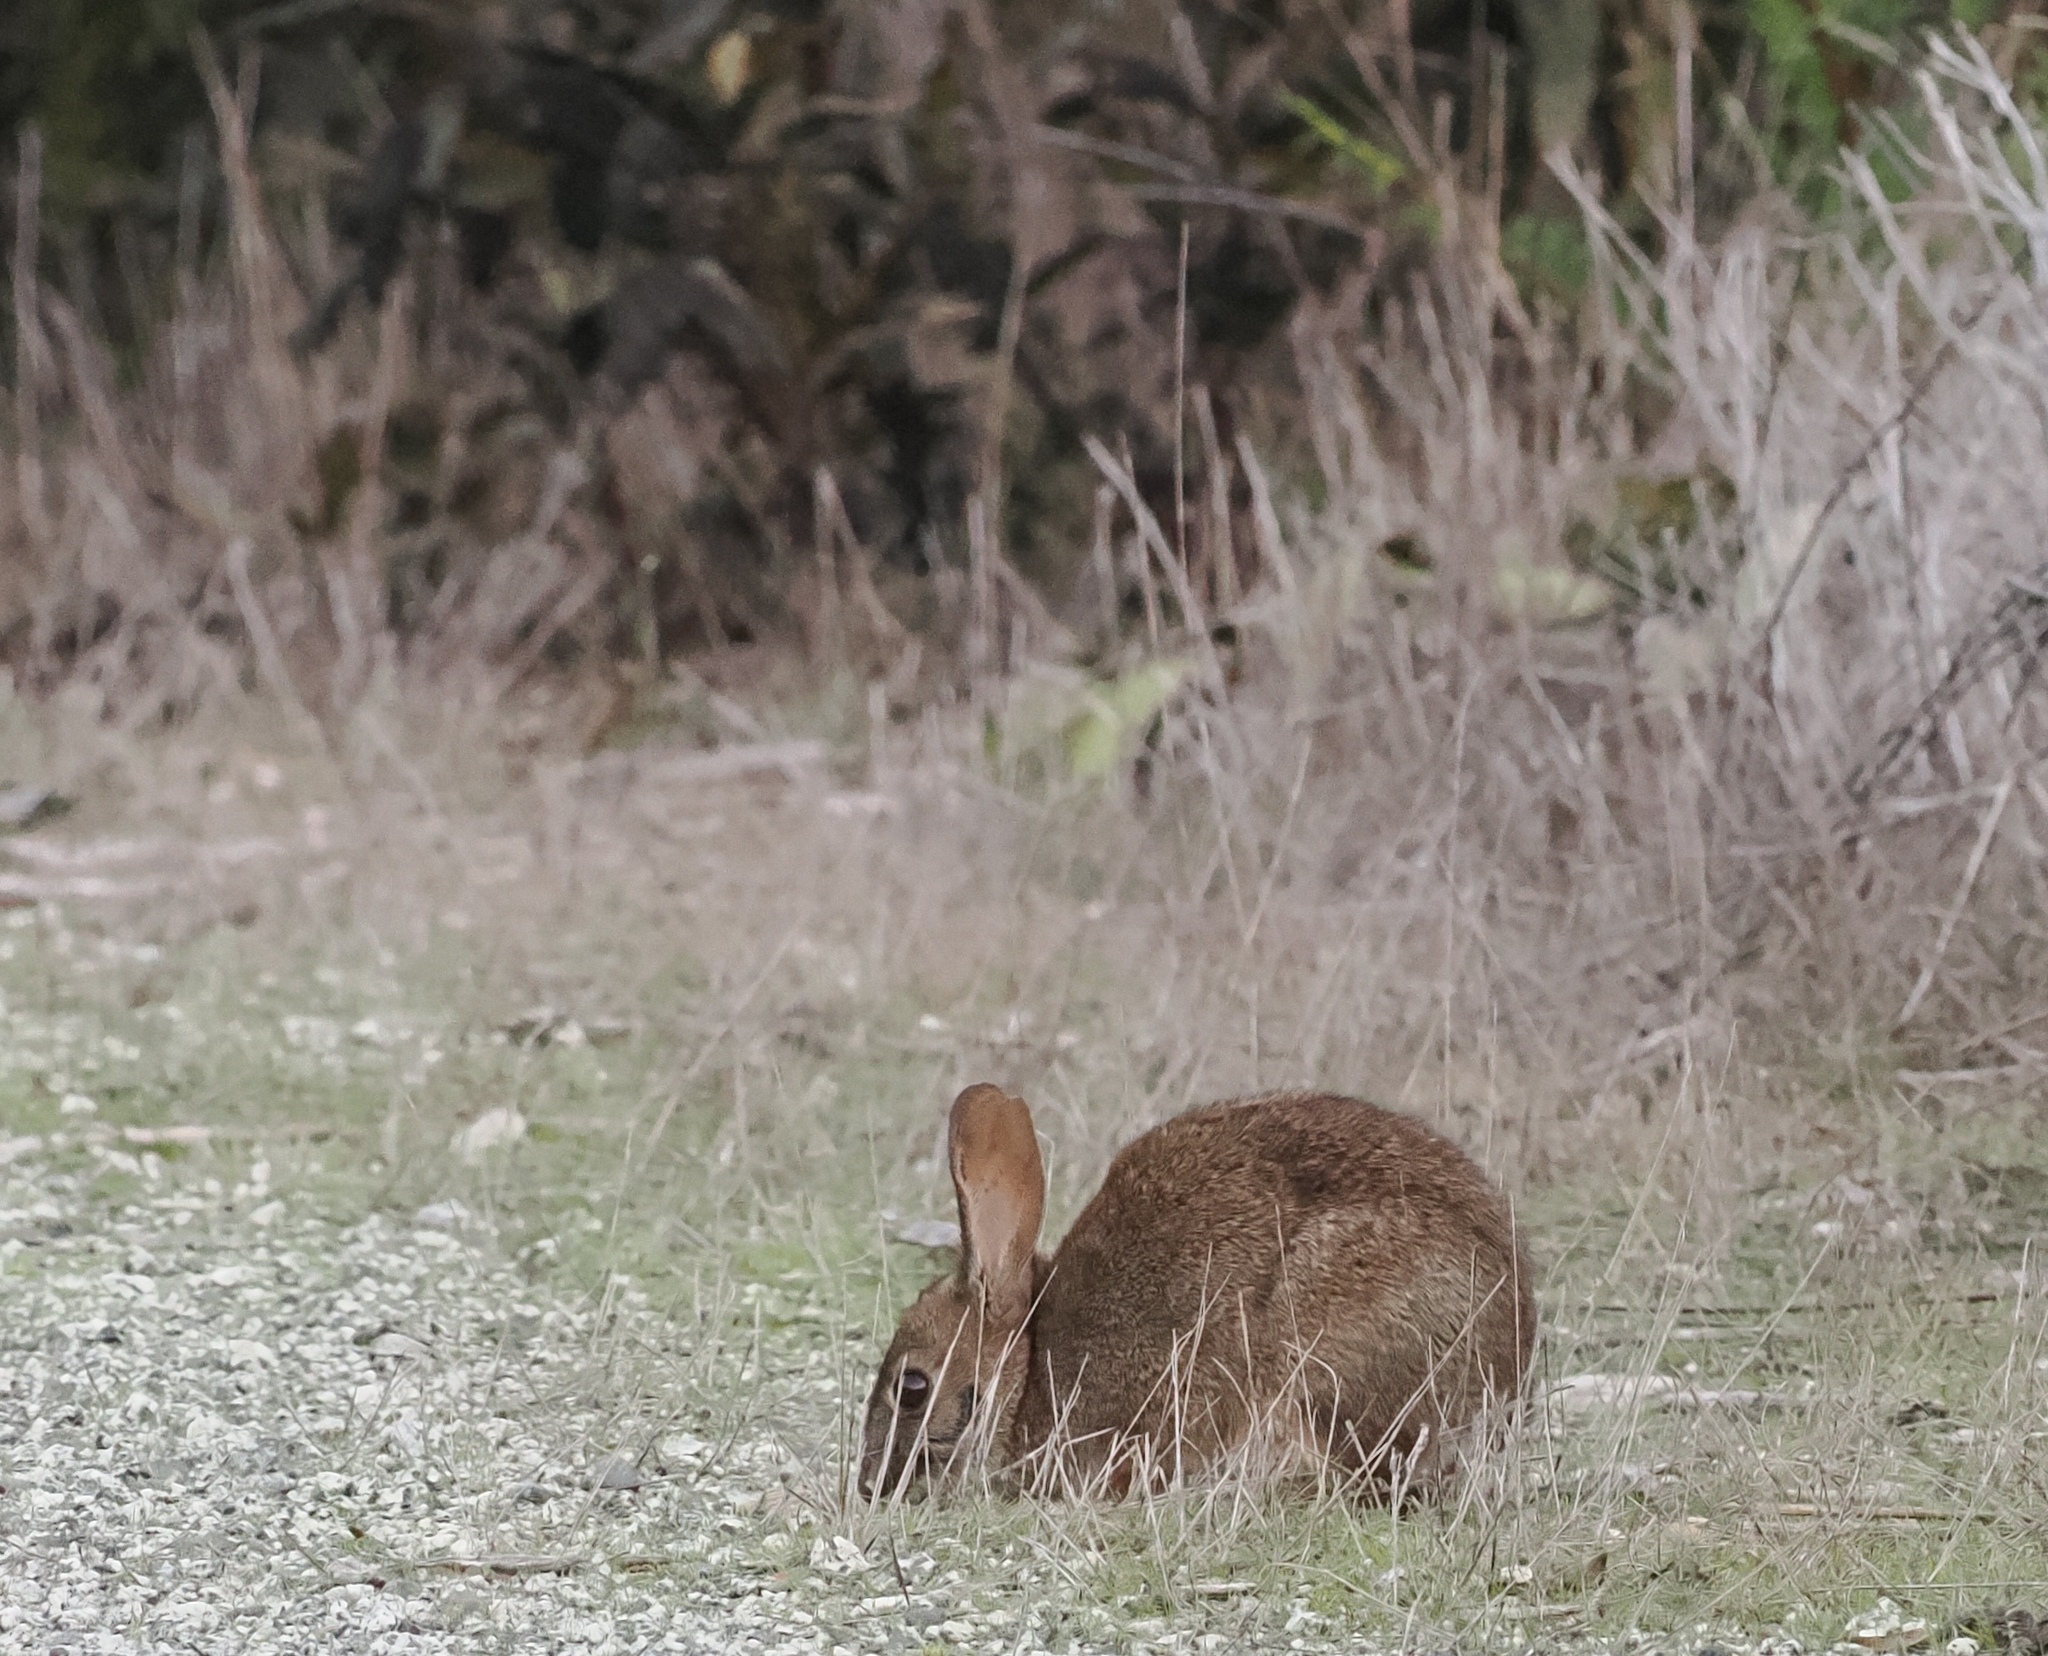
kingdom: Animalia
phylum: Chordata
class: Mammalia
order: Lagomorpha
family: Leporidae
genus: Sylvilagus
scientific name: Sylvilagus bachmani
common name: Brush rabbit
